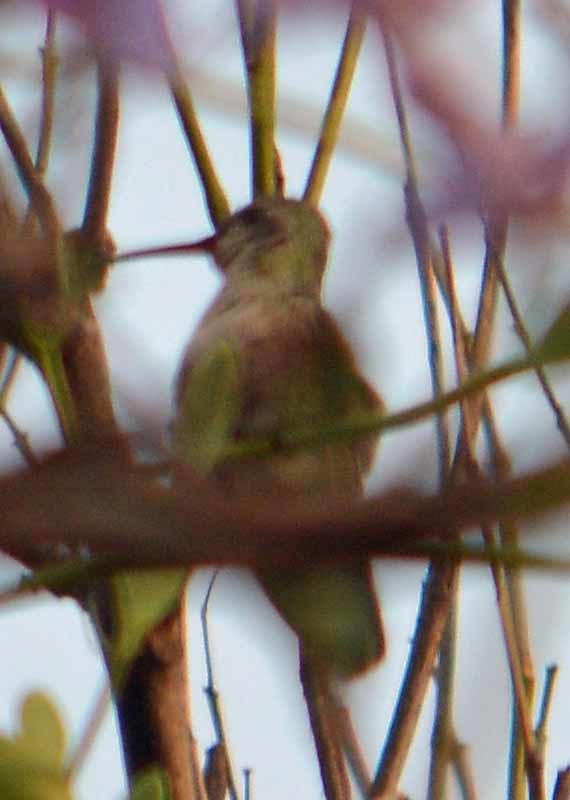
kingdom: Animalia
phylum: Chordata
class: Aves
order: Apodiformes
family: Trochilidae
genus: Cynanthus
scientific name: Cynanthus latirostris
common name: Broad-billed hummingbird
